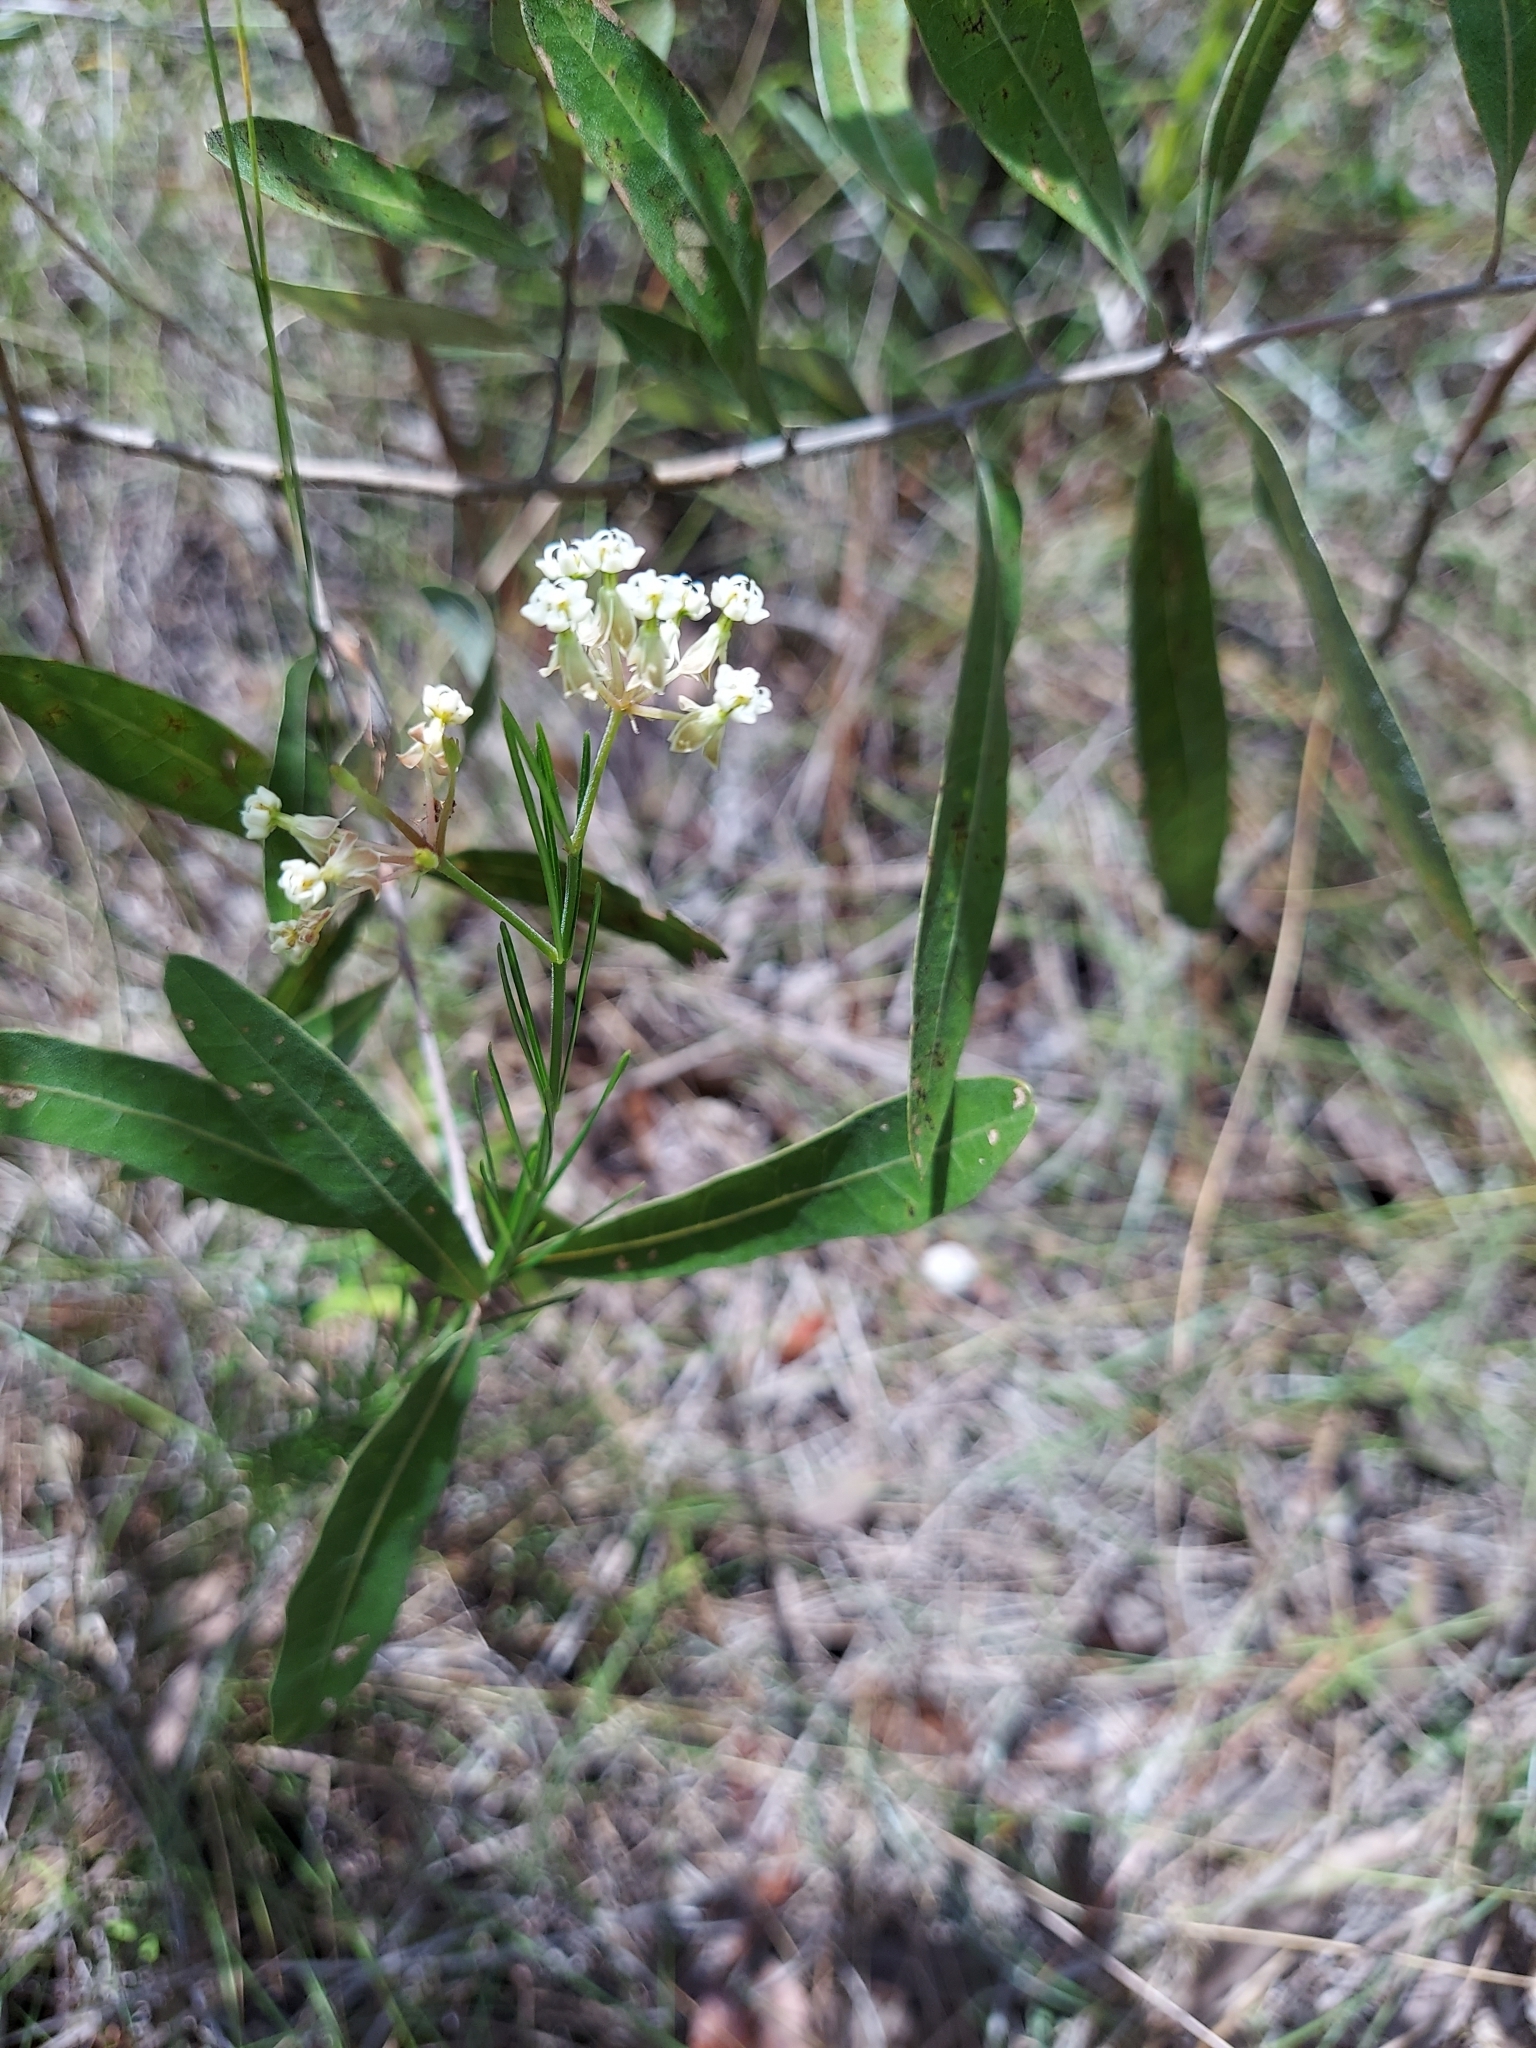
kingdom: Plantae
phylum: Tracheophyta
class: Magnoliopsida
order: Gentianales
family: Apocynaceae
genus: Asclepias
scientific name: Asclepias verticillata
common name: Eastern whorled milkweed
